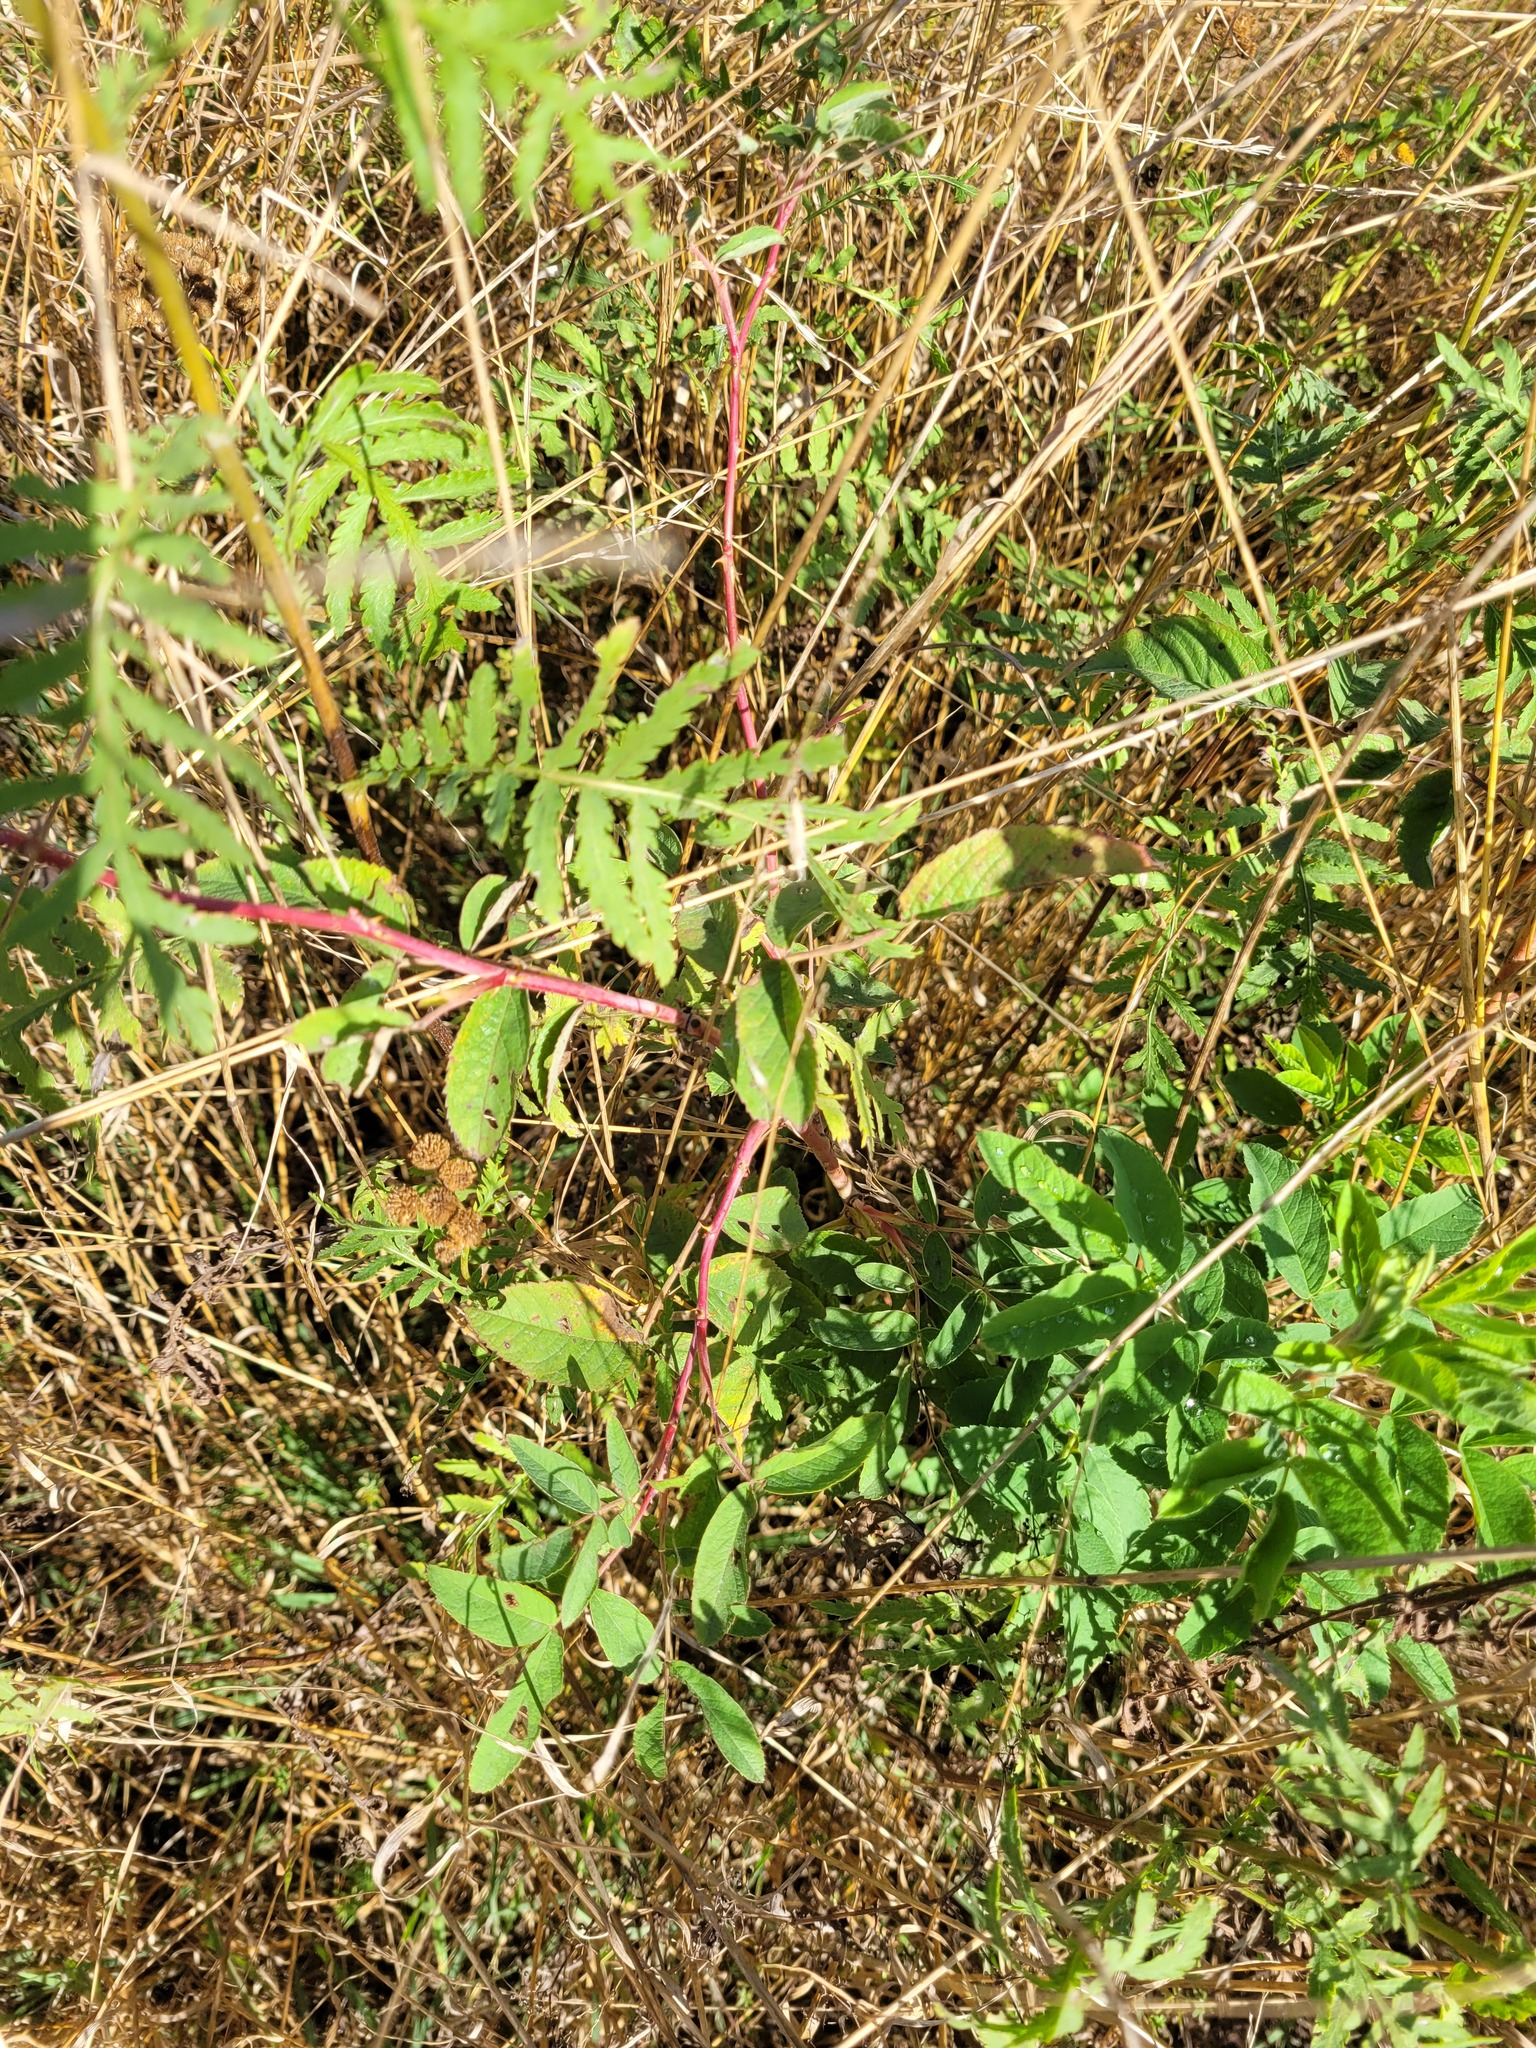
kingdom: Plantae
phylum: Tracheophyta
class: Magnoliopsida
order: Rosales
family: Rosaceae
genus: Rosa
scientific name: Rosa majalis
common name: Cinnamon rose
